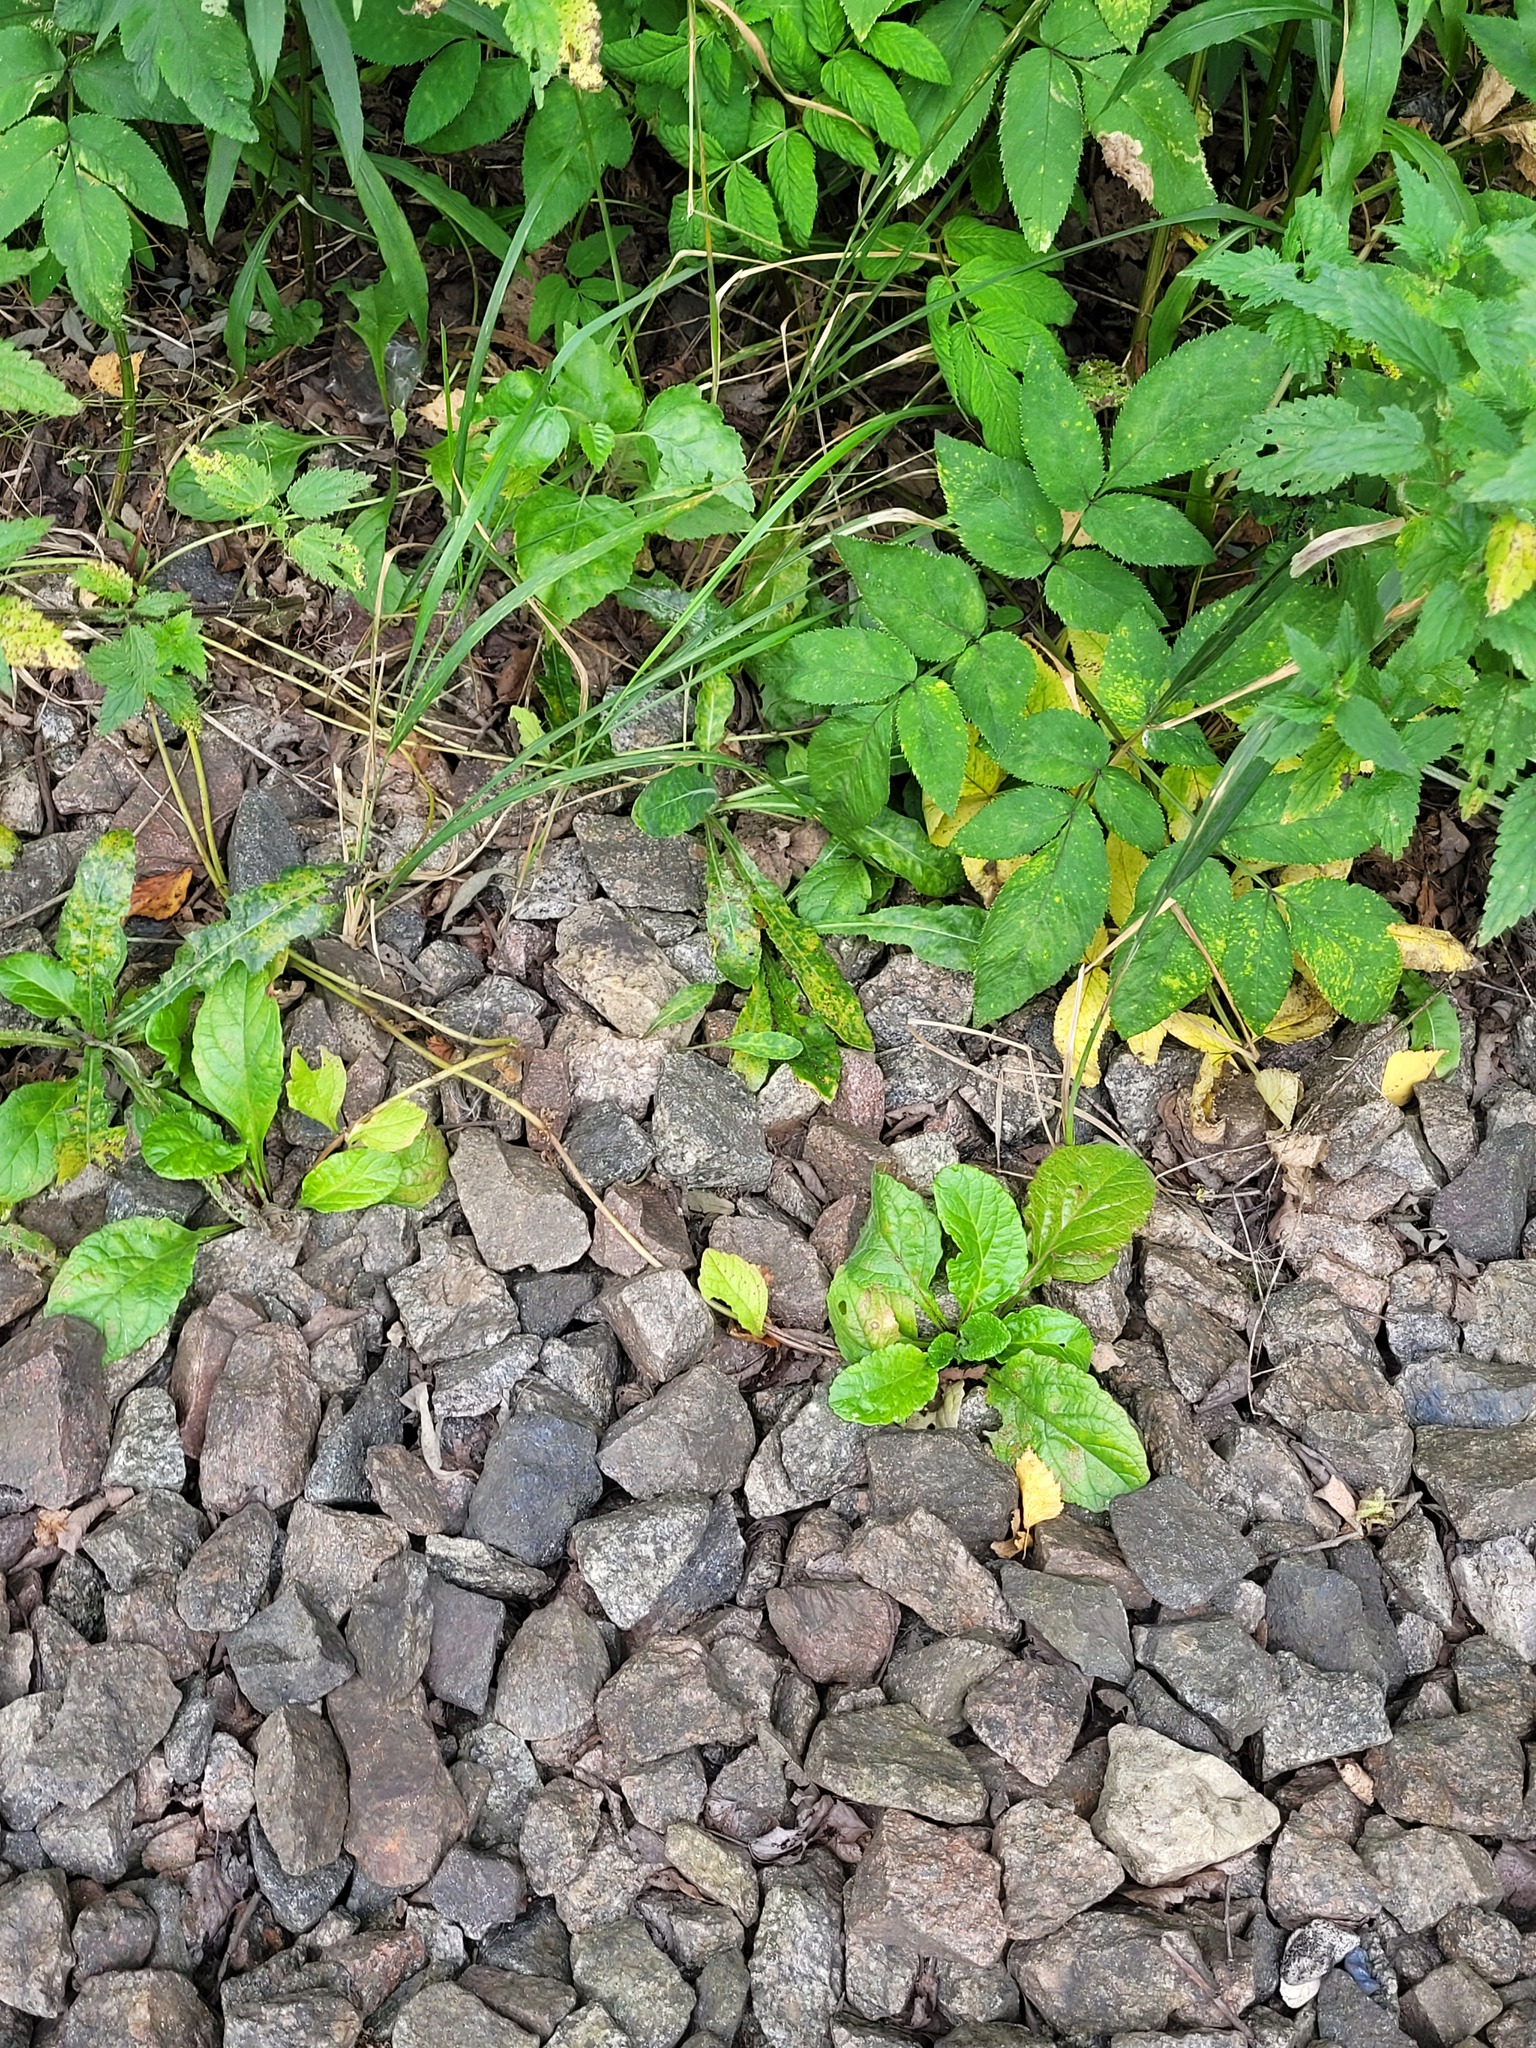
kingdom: Plantae
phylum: Tracheophyta
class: Magnoliopsida
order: Lamiales
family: Lamiaceae
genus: Ajuga
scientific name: Ajuga reptans
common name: Bugle
